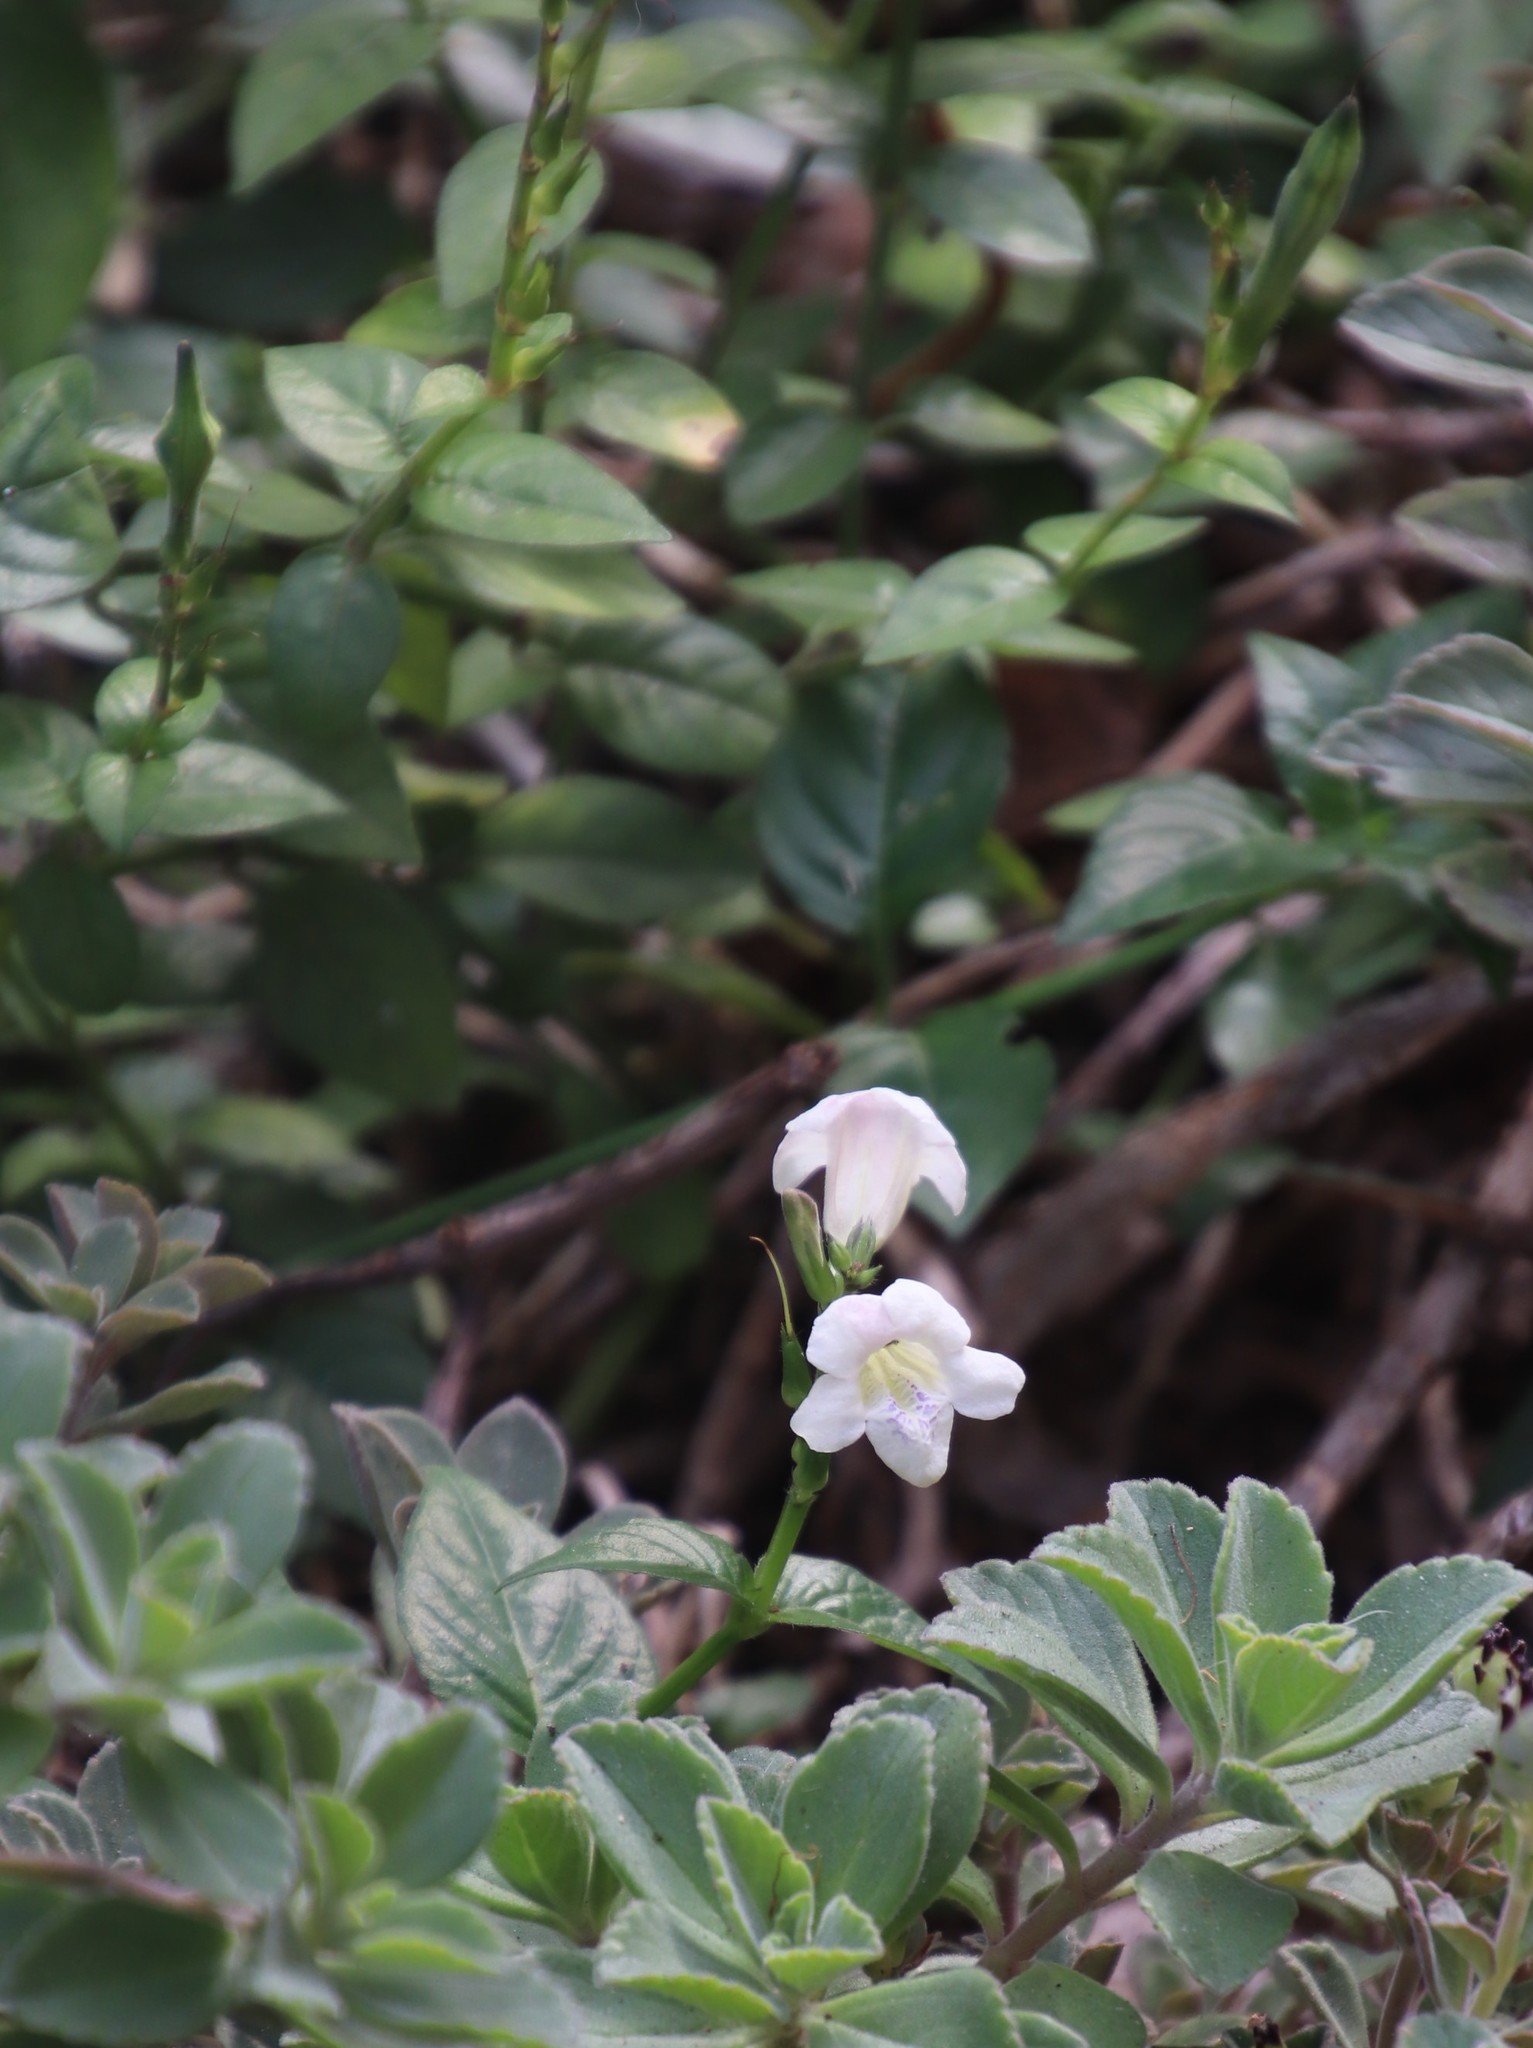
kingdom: Plantae
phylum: Tracheophyta
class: Magnoliopsida
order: Lamiales
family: Acanthaceae
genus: Asystasia
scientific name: Asystasia intrusa
